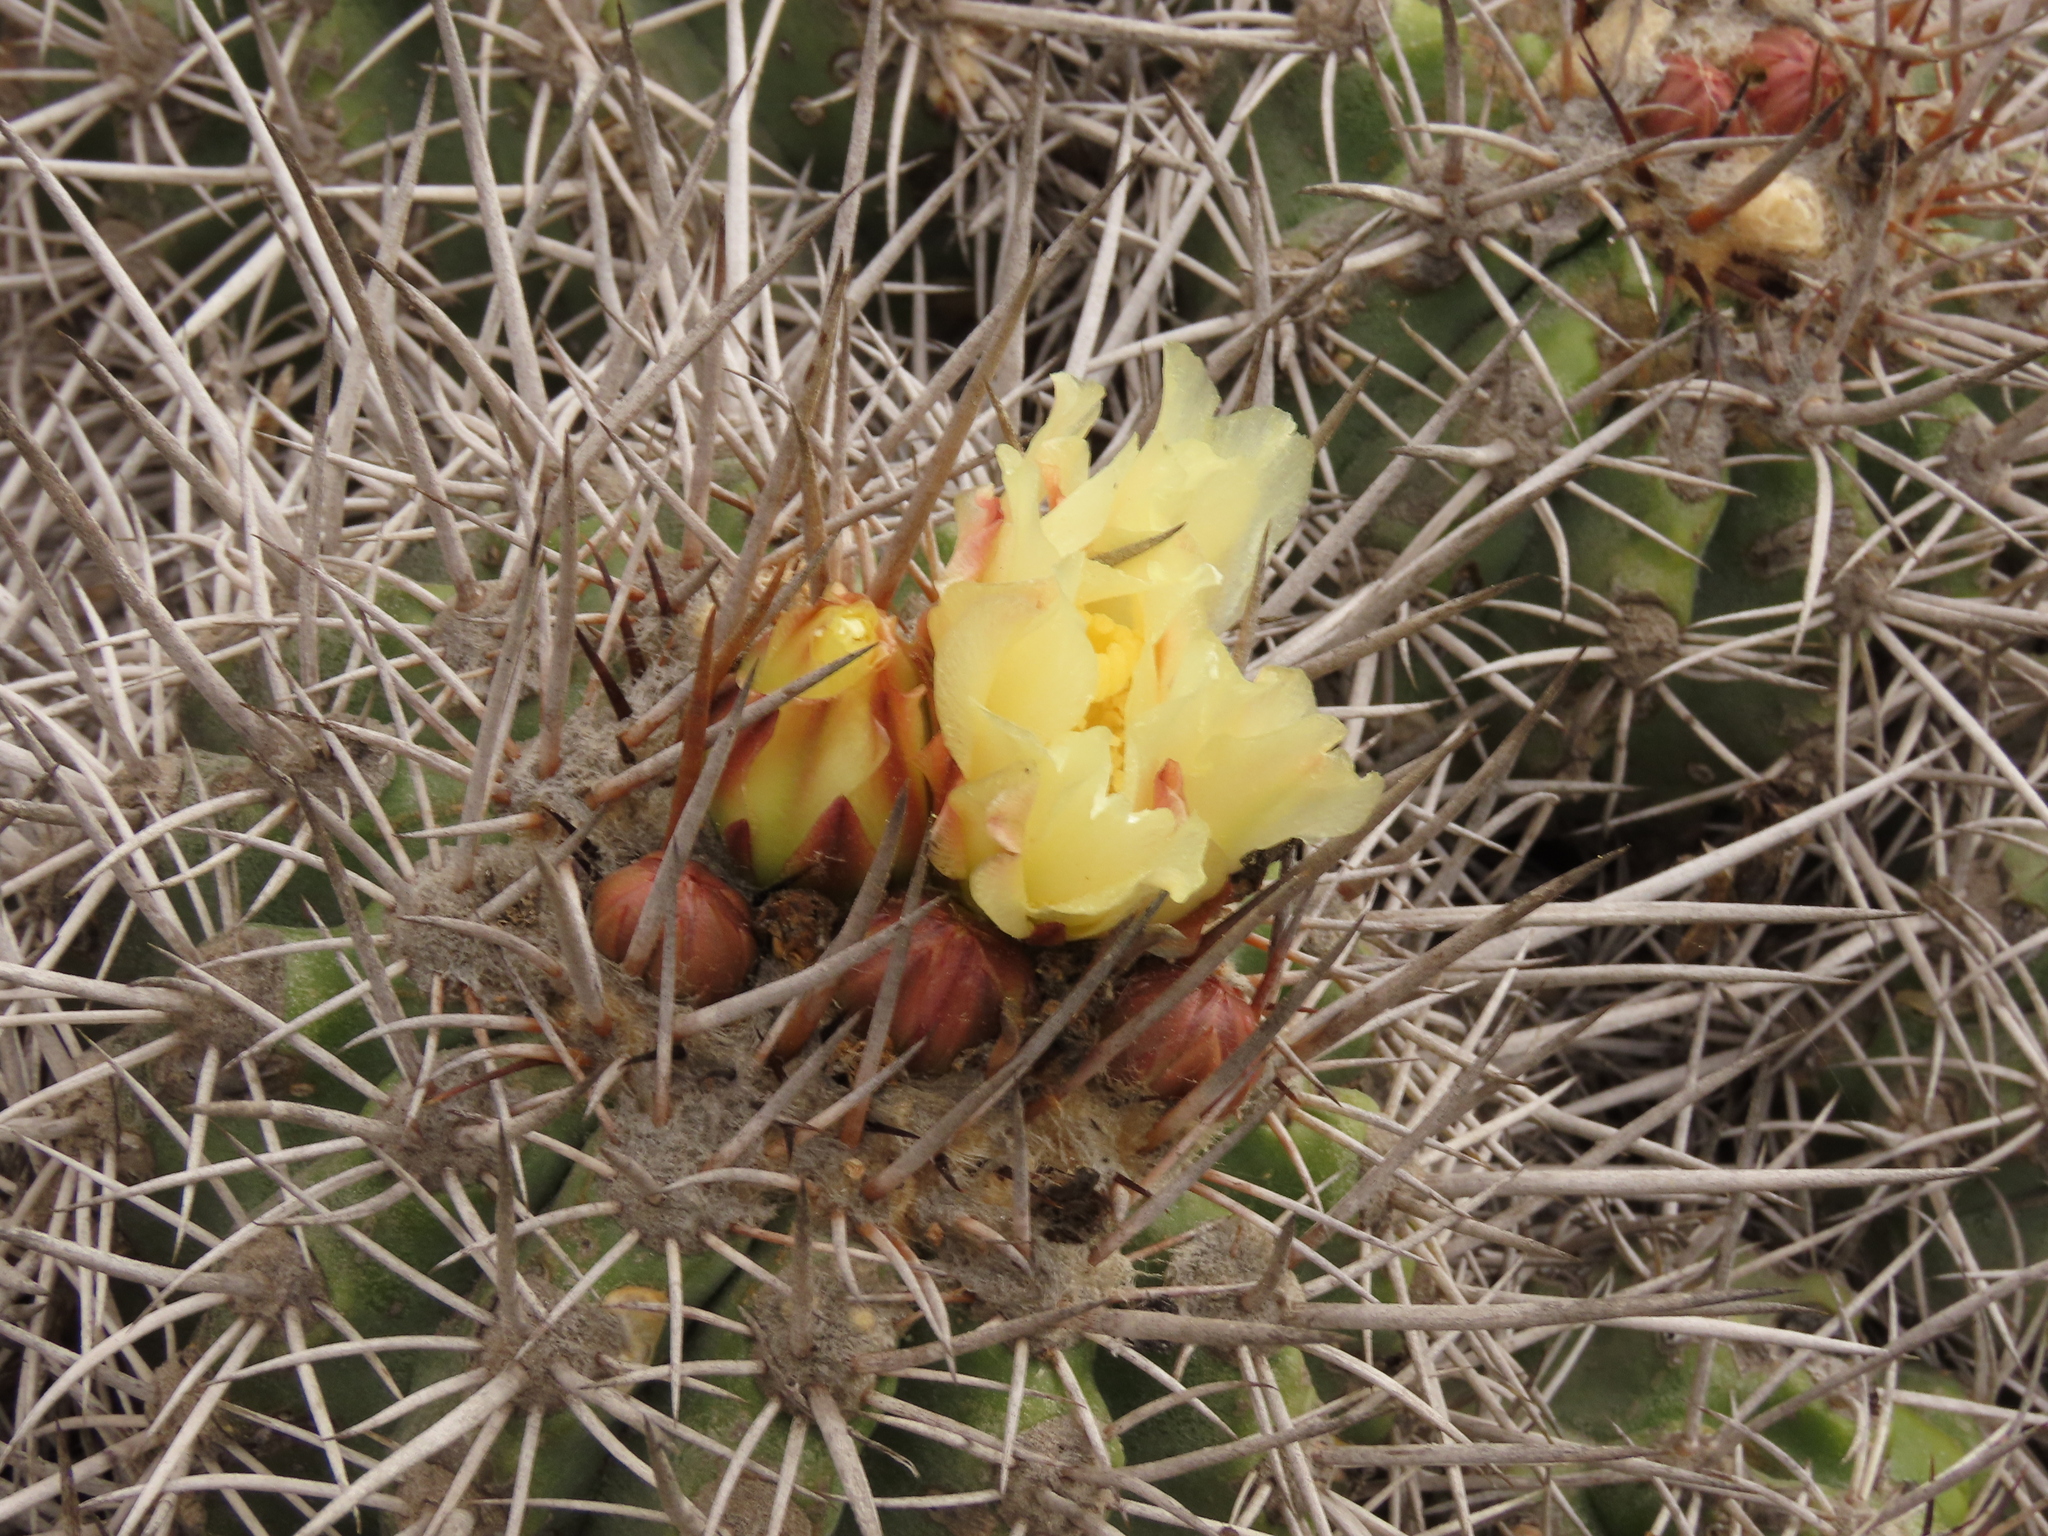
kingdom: Plantae
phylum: Tracheophyta
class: Magnoliopsida
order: Caryophyllales
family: Cactaceae
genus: Copiapoa
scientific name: Copiapoa coquimbana
